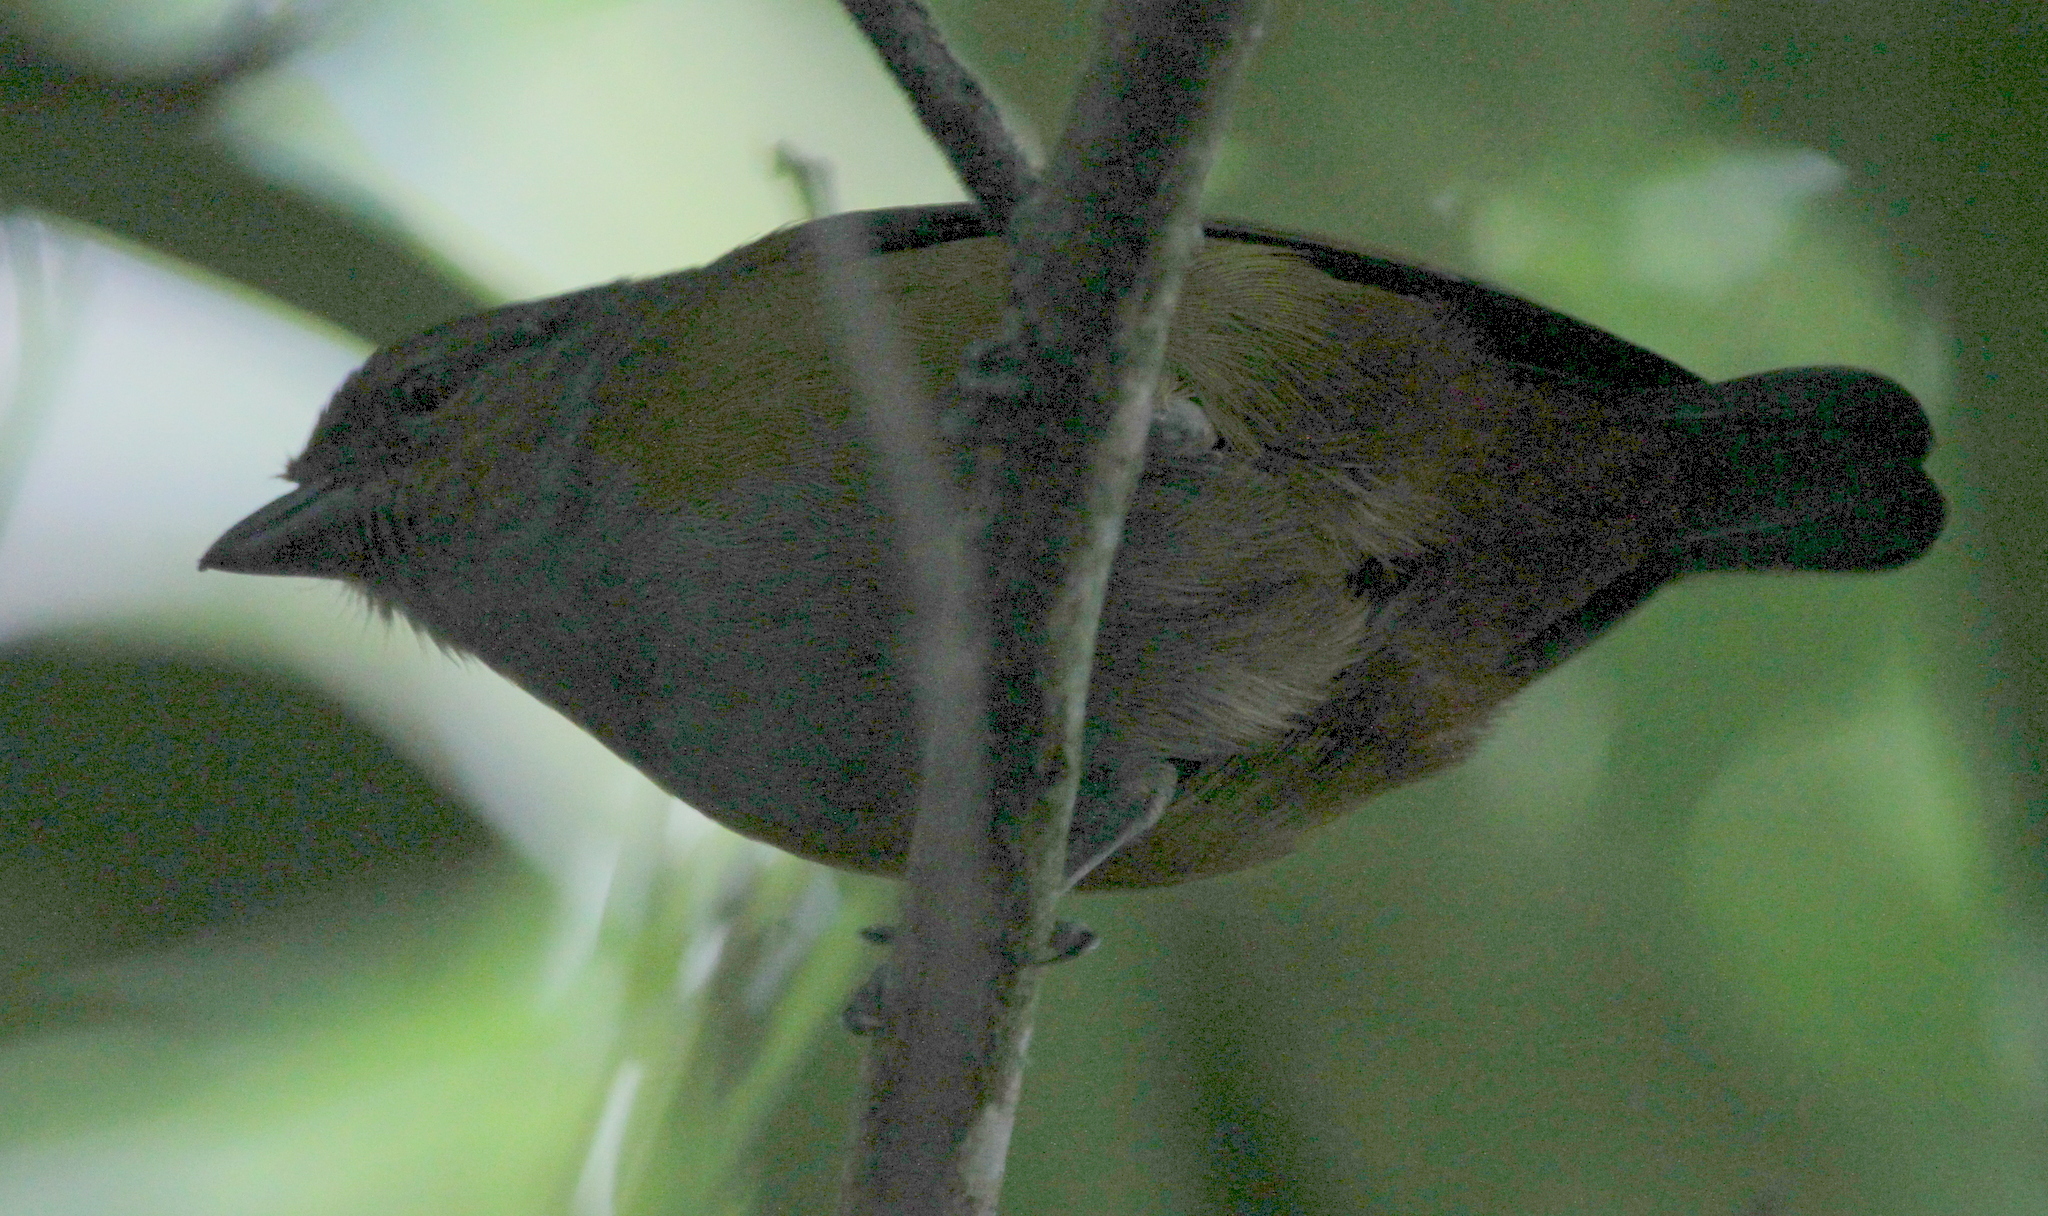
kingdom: Animalia
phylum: Chordata
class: Aves
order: Passeriformes
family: Fringillidae
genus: Euphonia
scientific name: Euphonia chalybea
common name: Green-chinned euphonia
